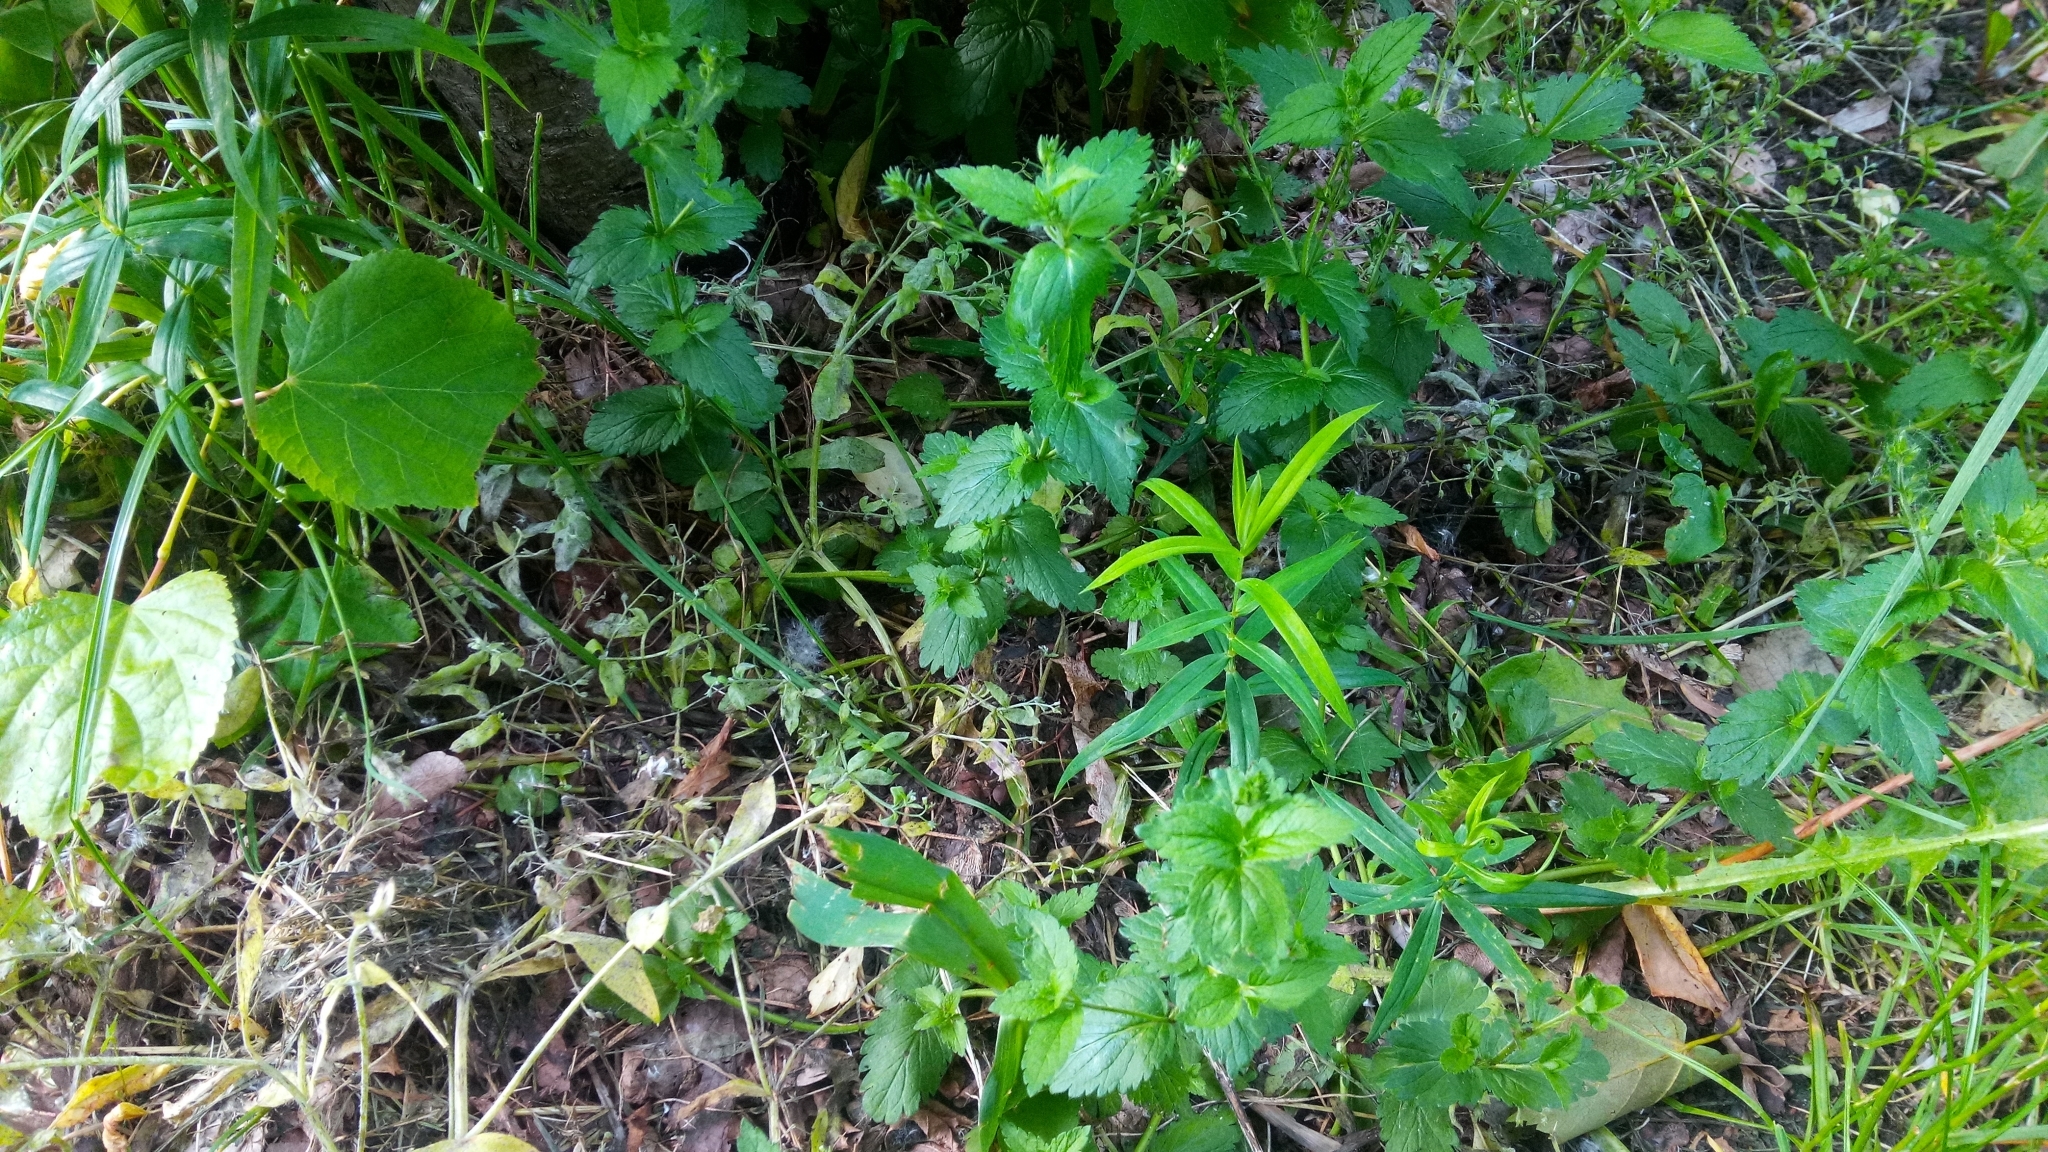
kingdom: Plantae
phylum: Tracheophyta
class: Magnoliopsida
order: Caryophyllales
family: Caryophyllaceae
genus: Rabelera
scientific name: Rabelera holostea
